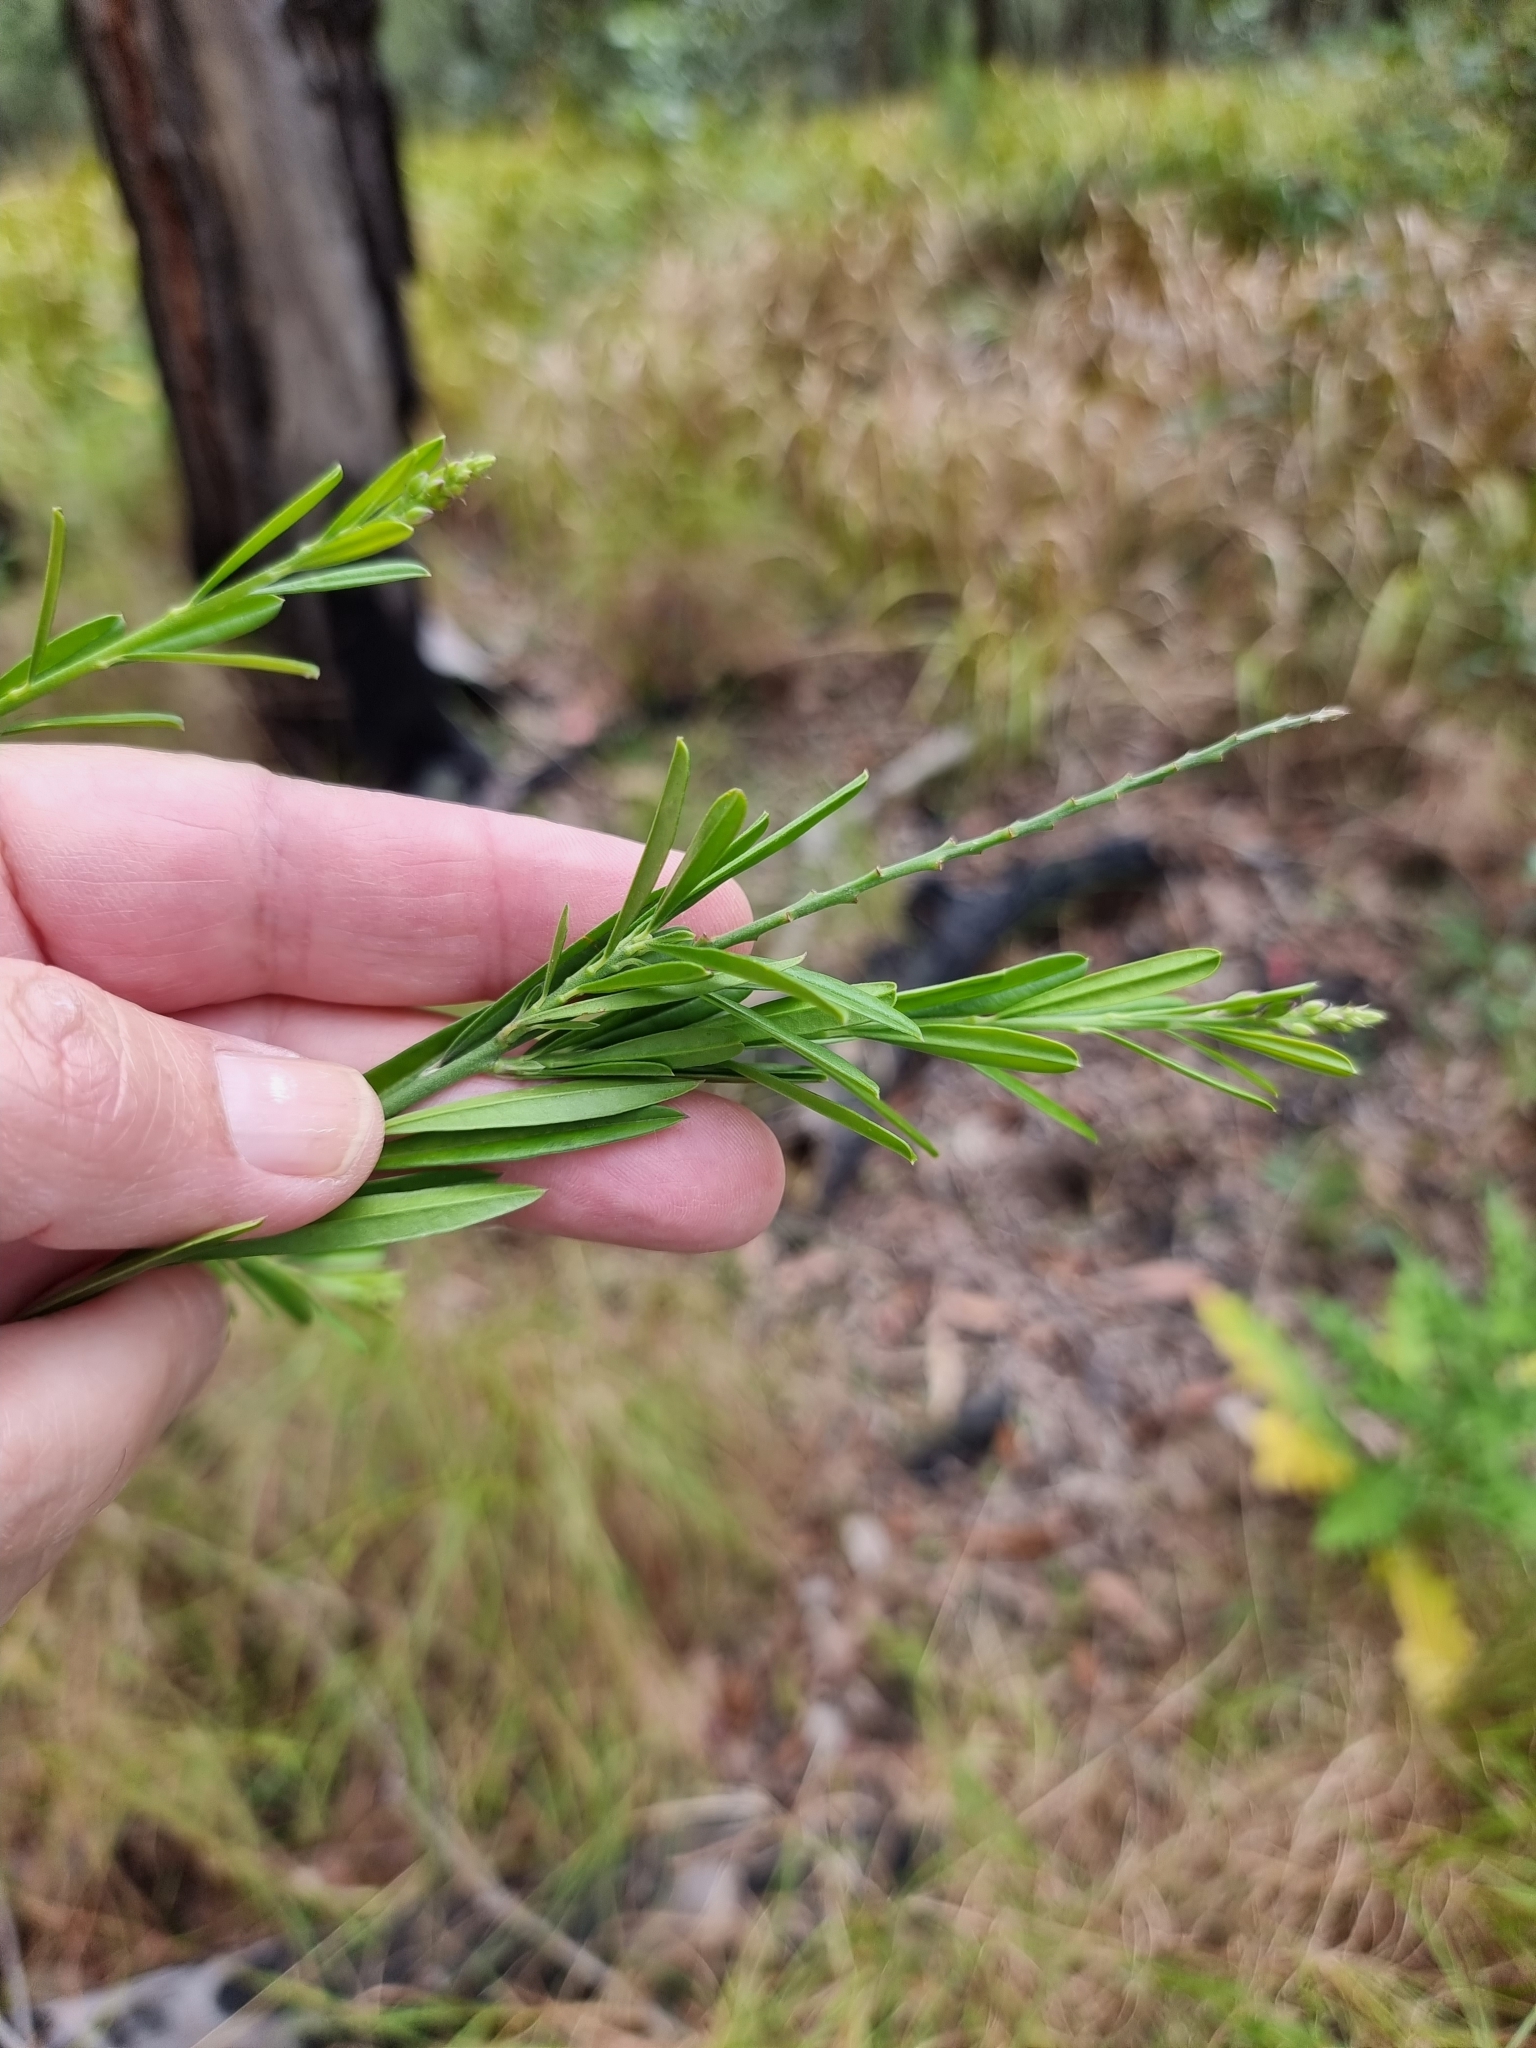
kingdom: Plantae
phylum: Tracheophyta
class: Magnoliopsida
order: Fabales
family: Polygalaceae
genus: Polygala
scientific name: Polygala virgata
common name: Milkwort
